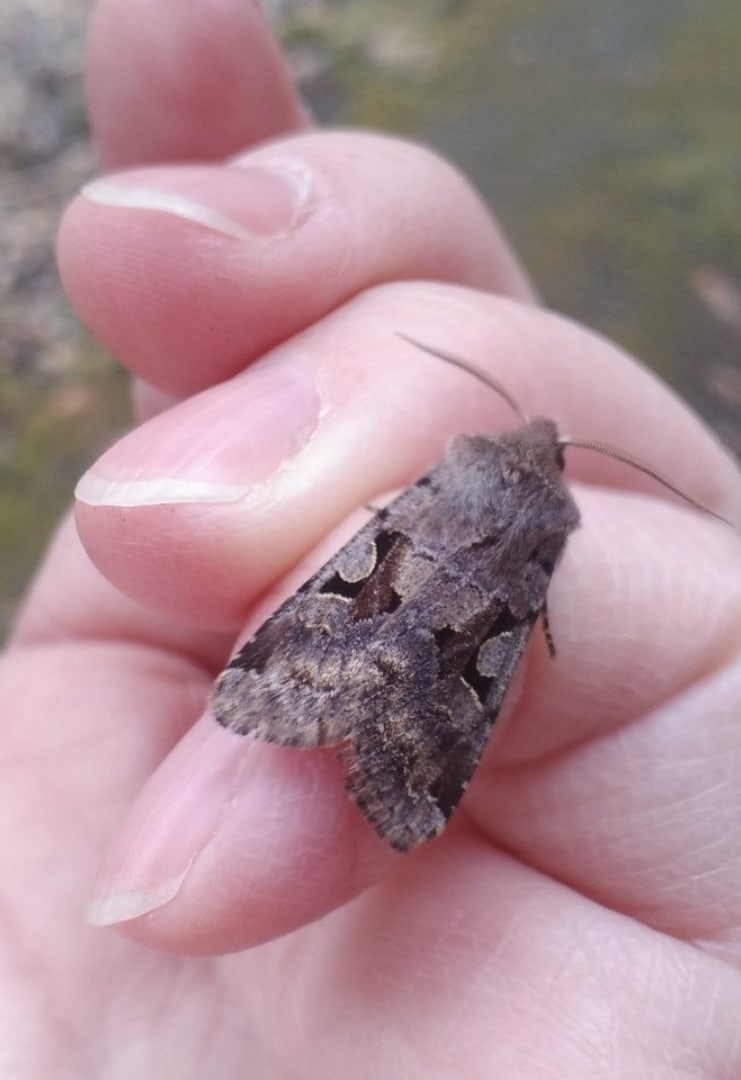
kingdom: Animalia
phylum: Arthropoda
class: Insecta
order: Lepidoptera
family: Noctuidae
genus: Orthosia
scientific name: Orthosia gothica
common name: Hebrew character
